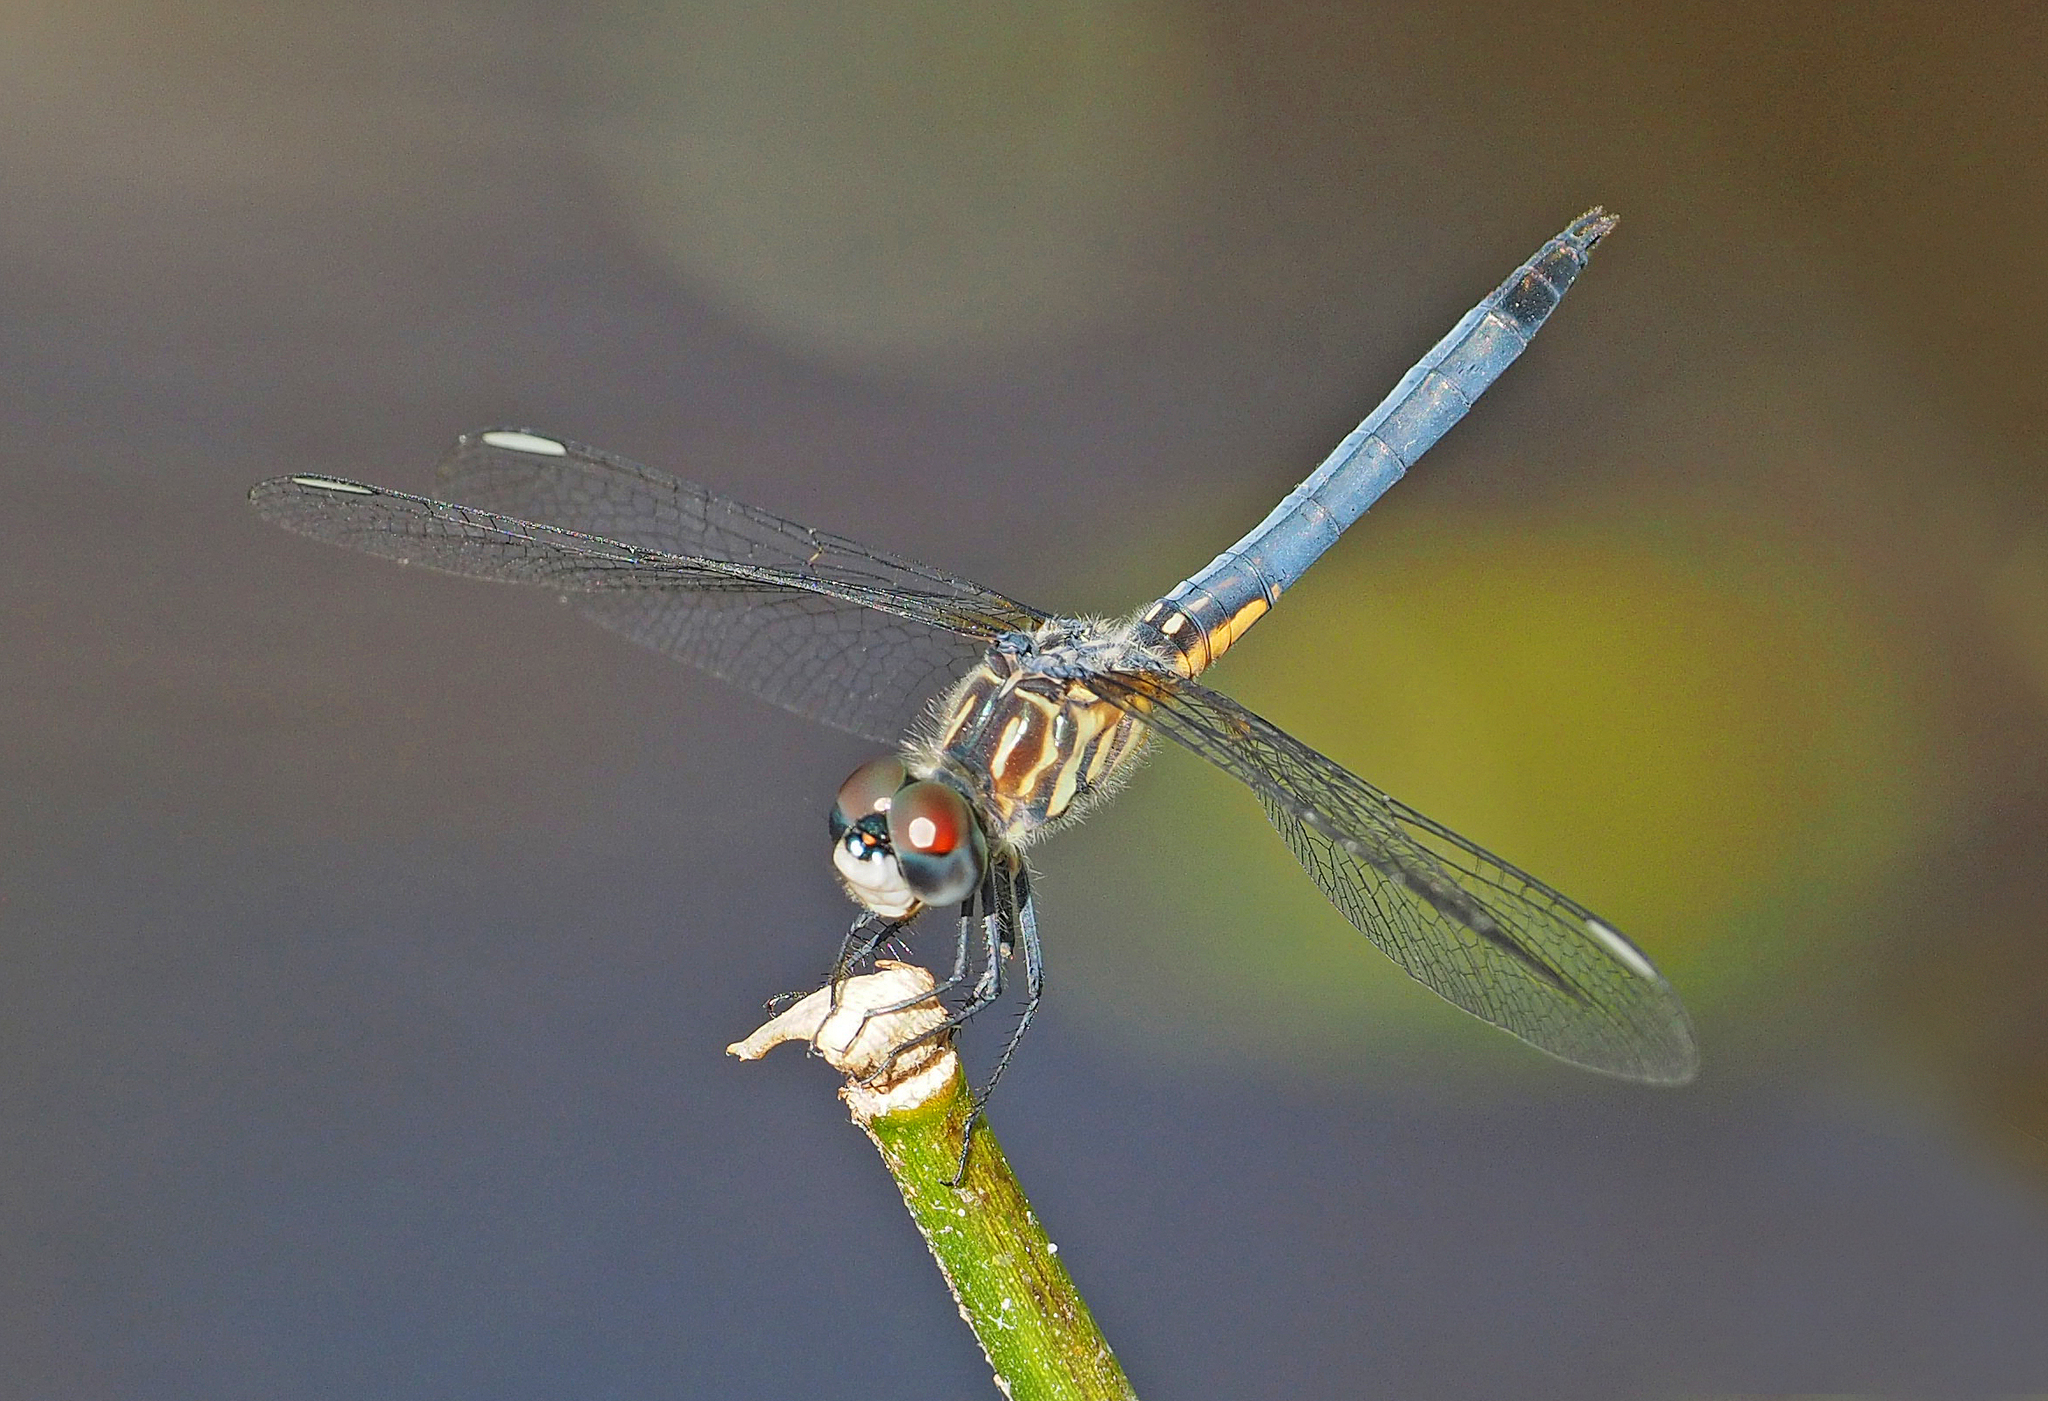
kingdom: Animalia
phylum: Arthropoda
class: Insecta
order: Odonata
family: Libellulidae
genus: Pachydiplax
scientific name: Pachydiplax longipennis
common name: Blue dasher
